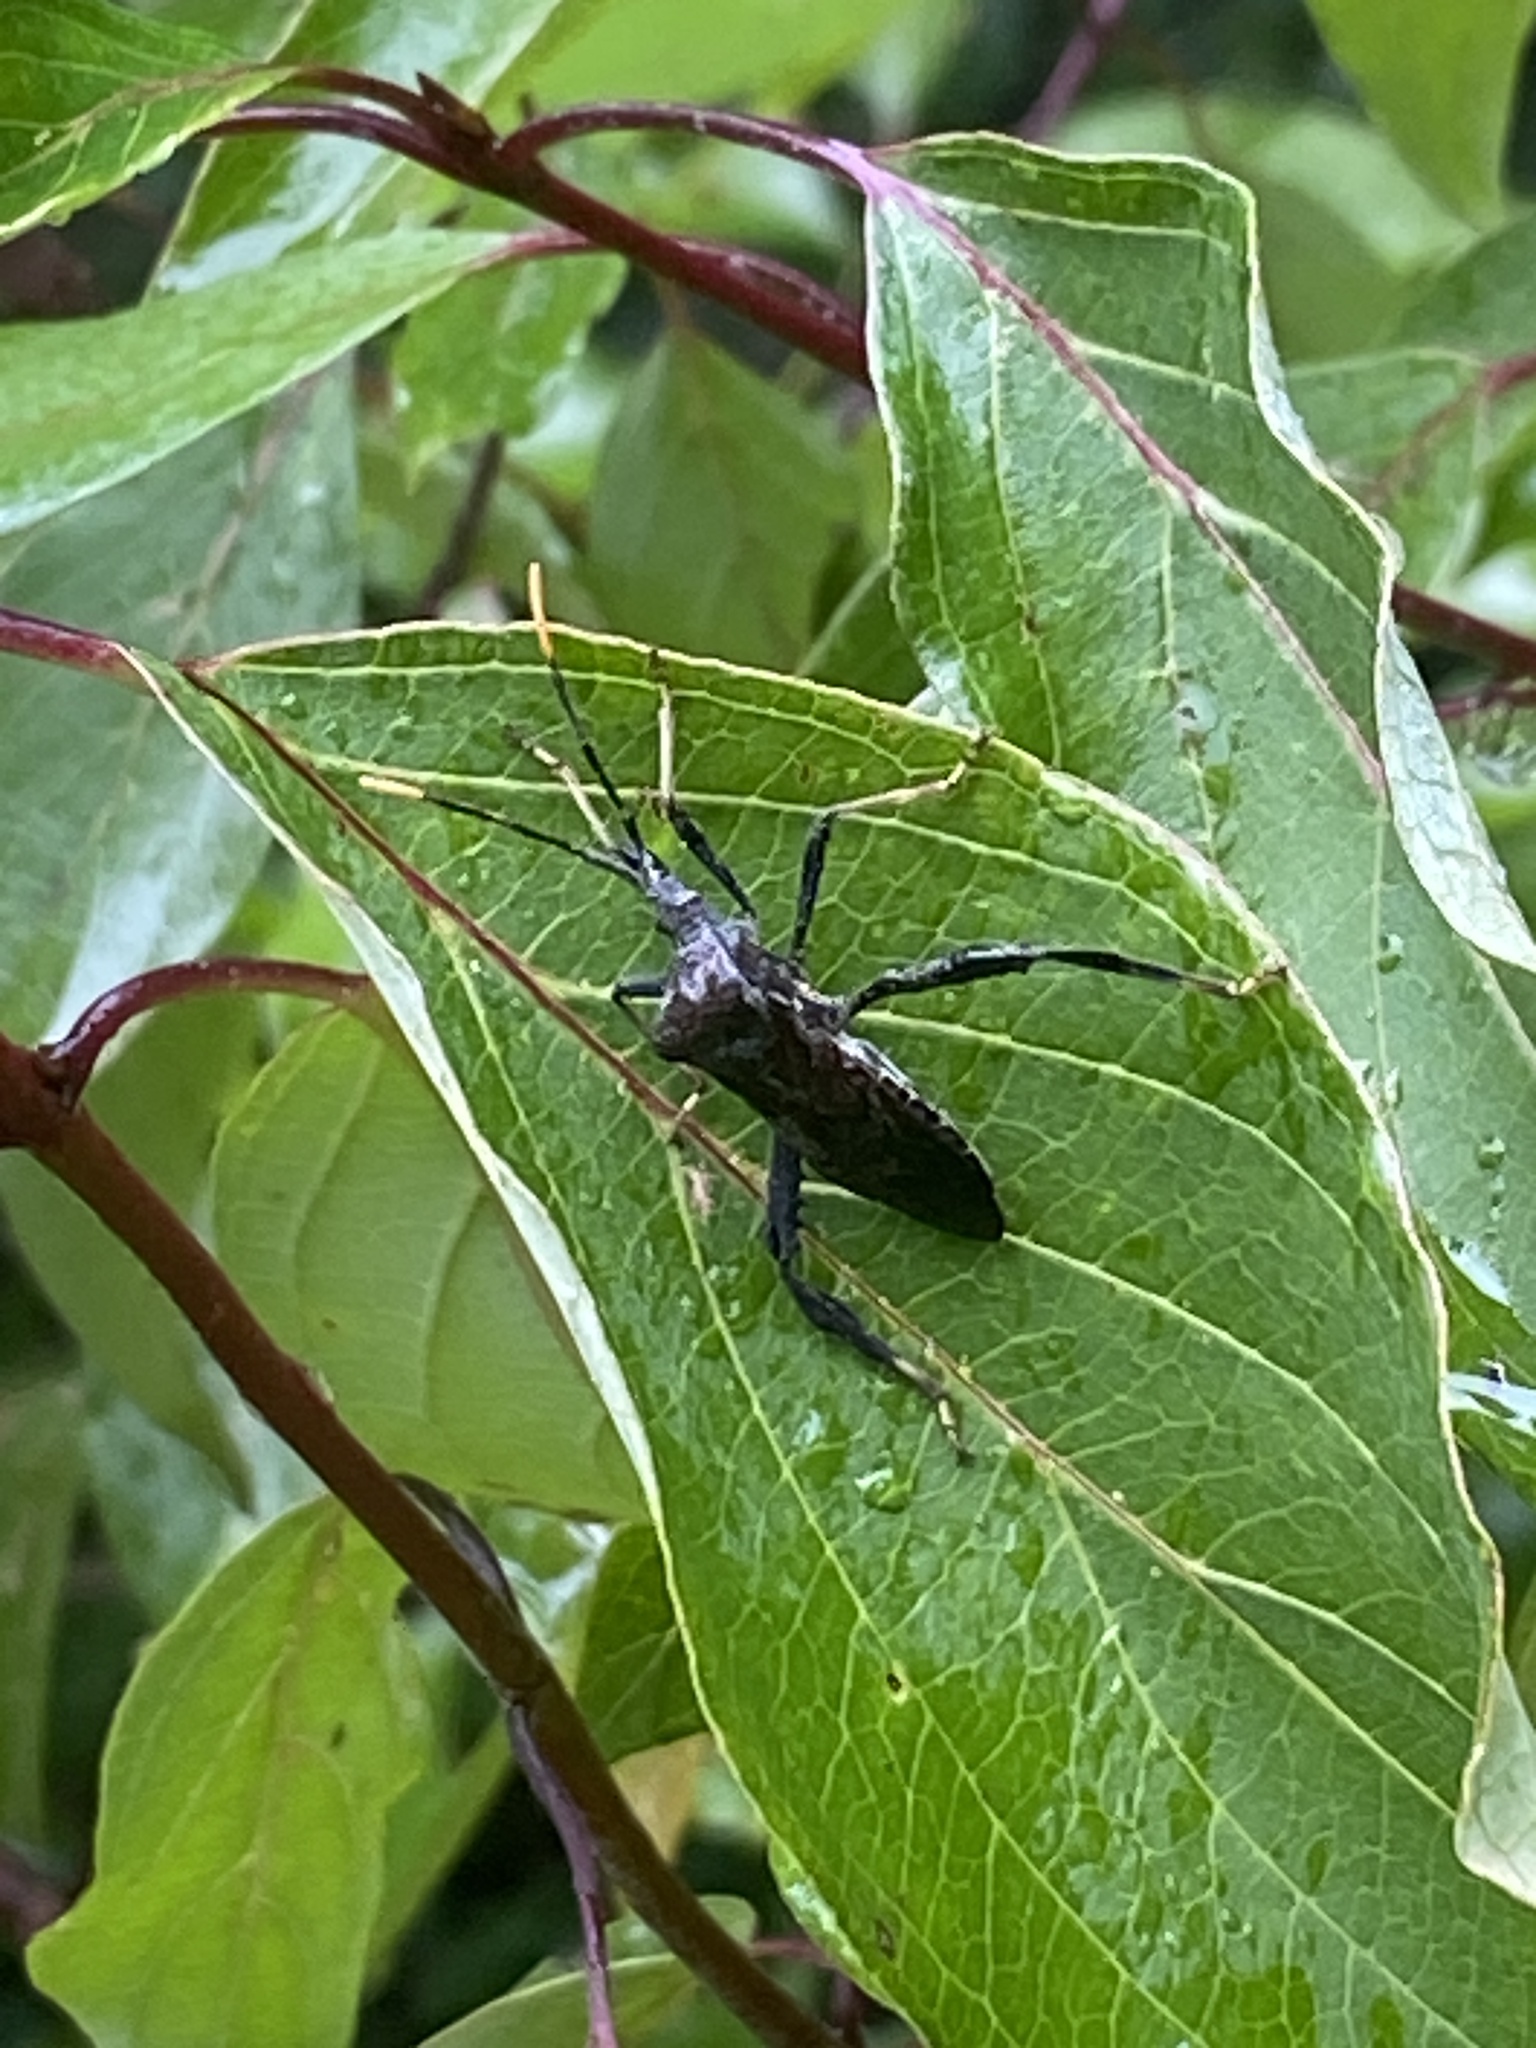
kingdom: Animalia
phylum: Arthropoda
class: Insecta
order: Hemiptera
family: Coreidae
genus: Acanthocephala
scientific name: Acanthocephala terminalis
